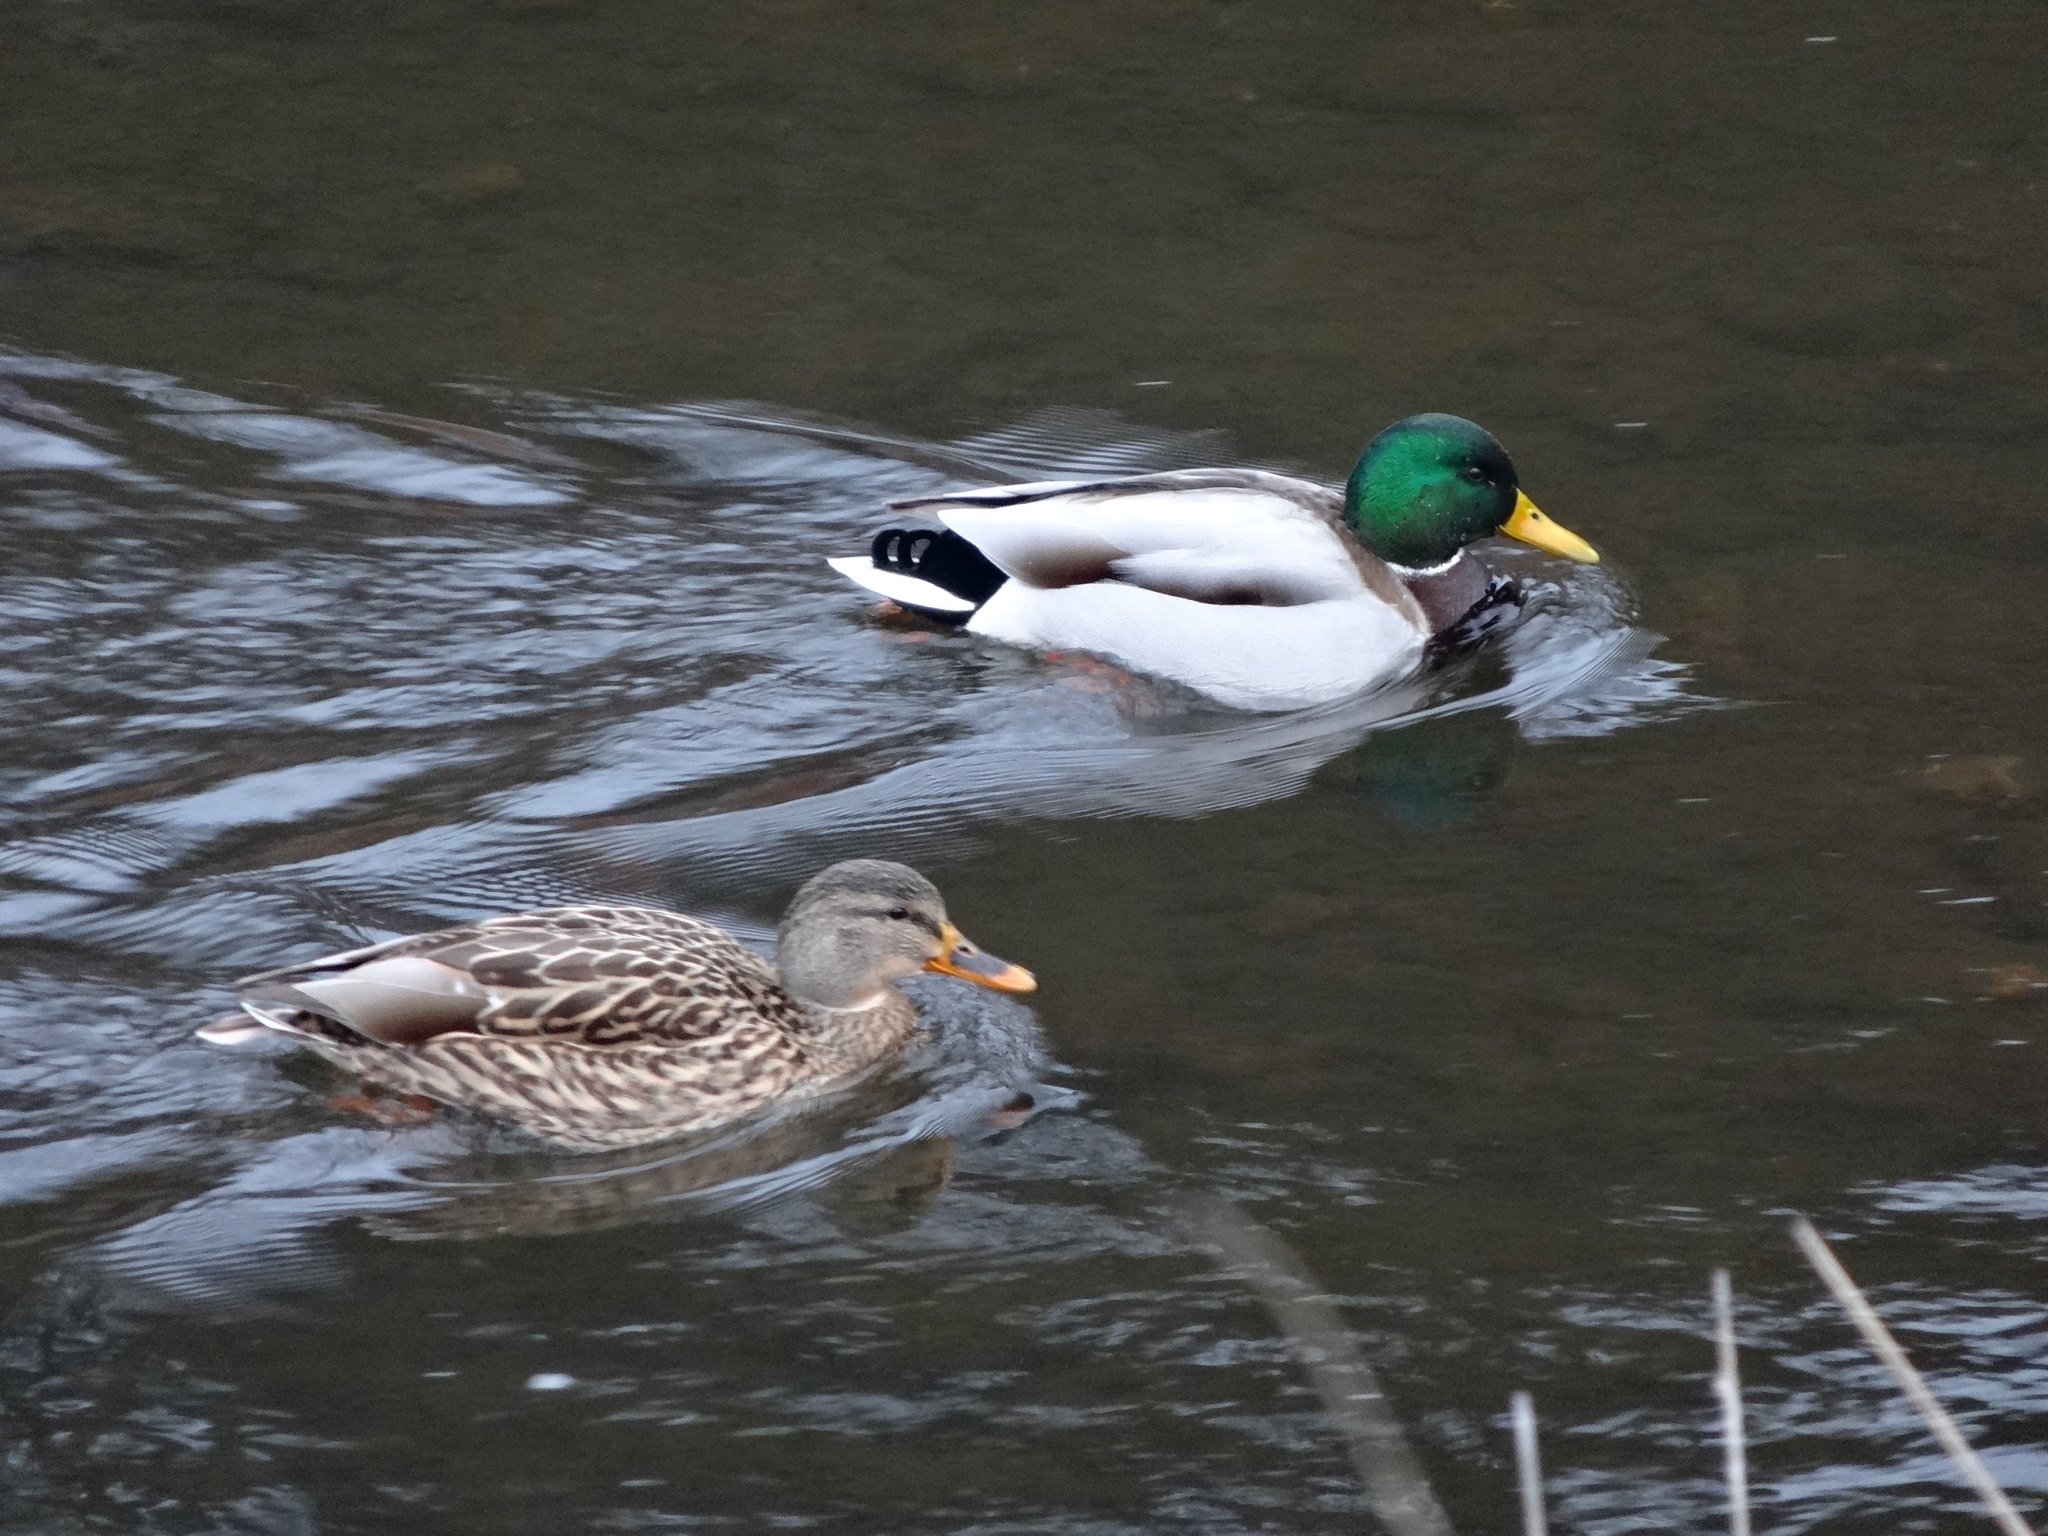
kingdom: Animalia
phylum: Chordata
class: Aves
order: Anseriformes
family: Anatidae
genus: Anas
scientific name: Anas platyrhynchos
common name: Mallard
